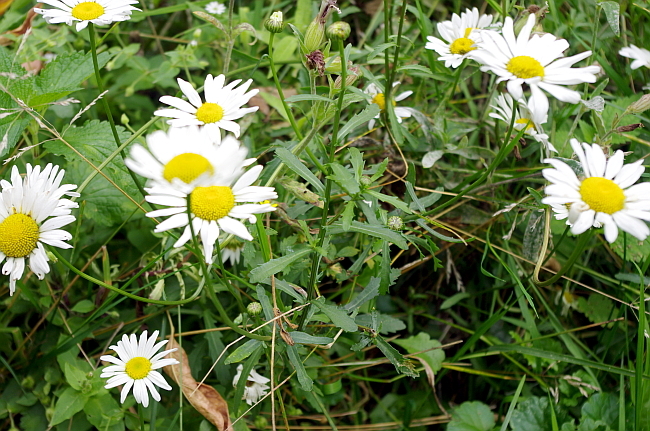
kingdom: Plantae
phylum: Tracheophyta
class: Magnoliopsida
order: Asterales
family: Asteraceae
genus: Leucanthemum
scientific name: Leucanthemum vulgare
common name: Oxeye daisy
